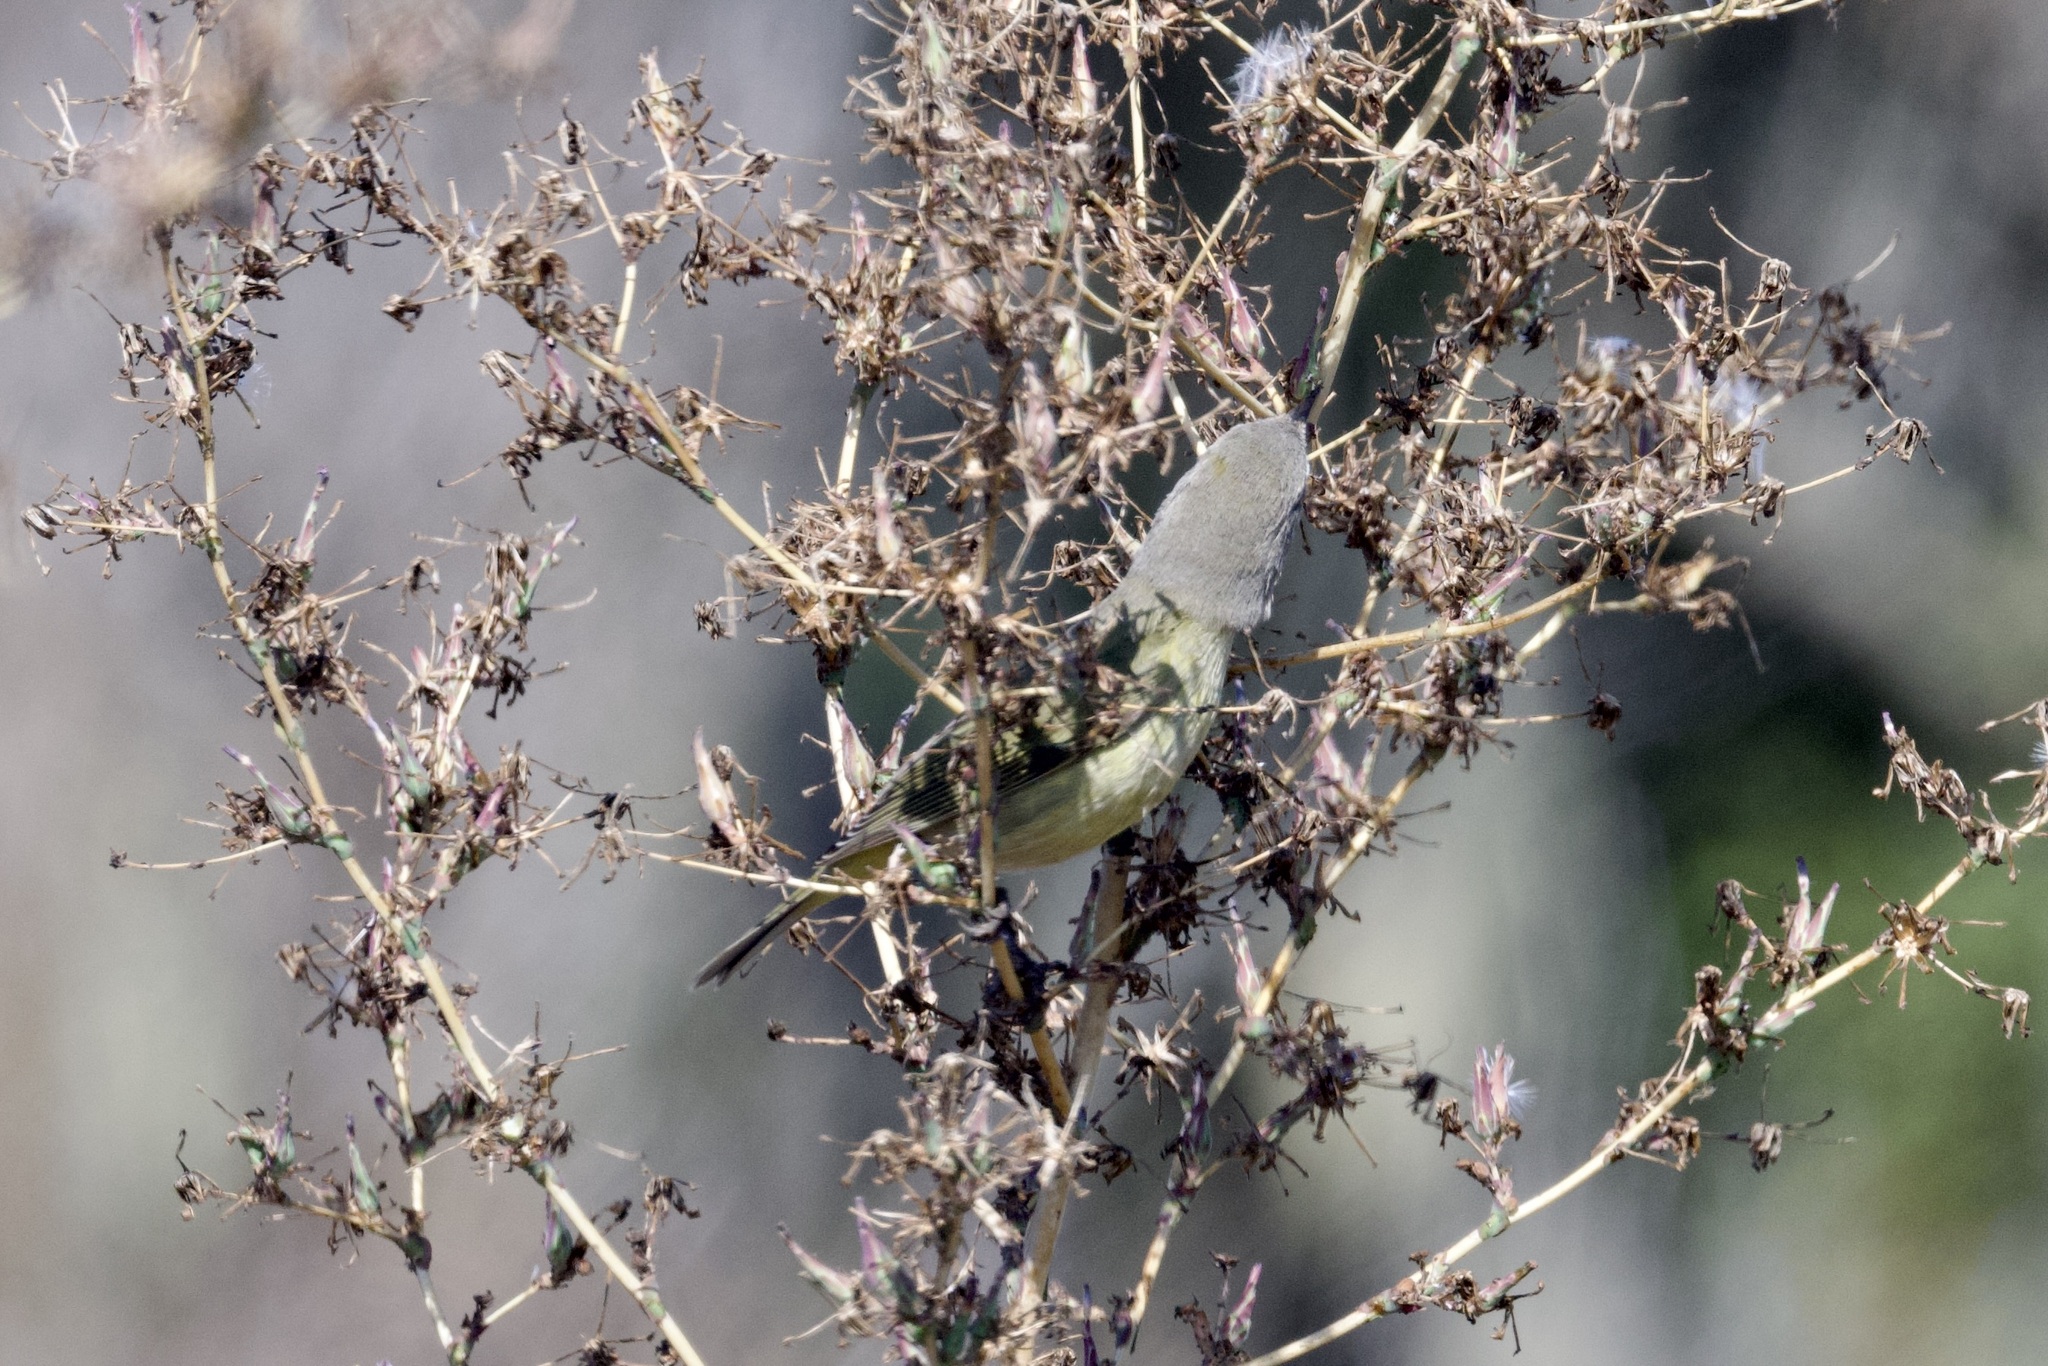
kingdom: Animalia
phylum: Chordata
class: Aves
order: Passeriformes
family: Parulidae
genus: Leiothlypis
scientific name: Leiothlypis celata
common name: Orange-crowned warbler
